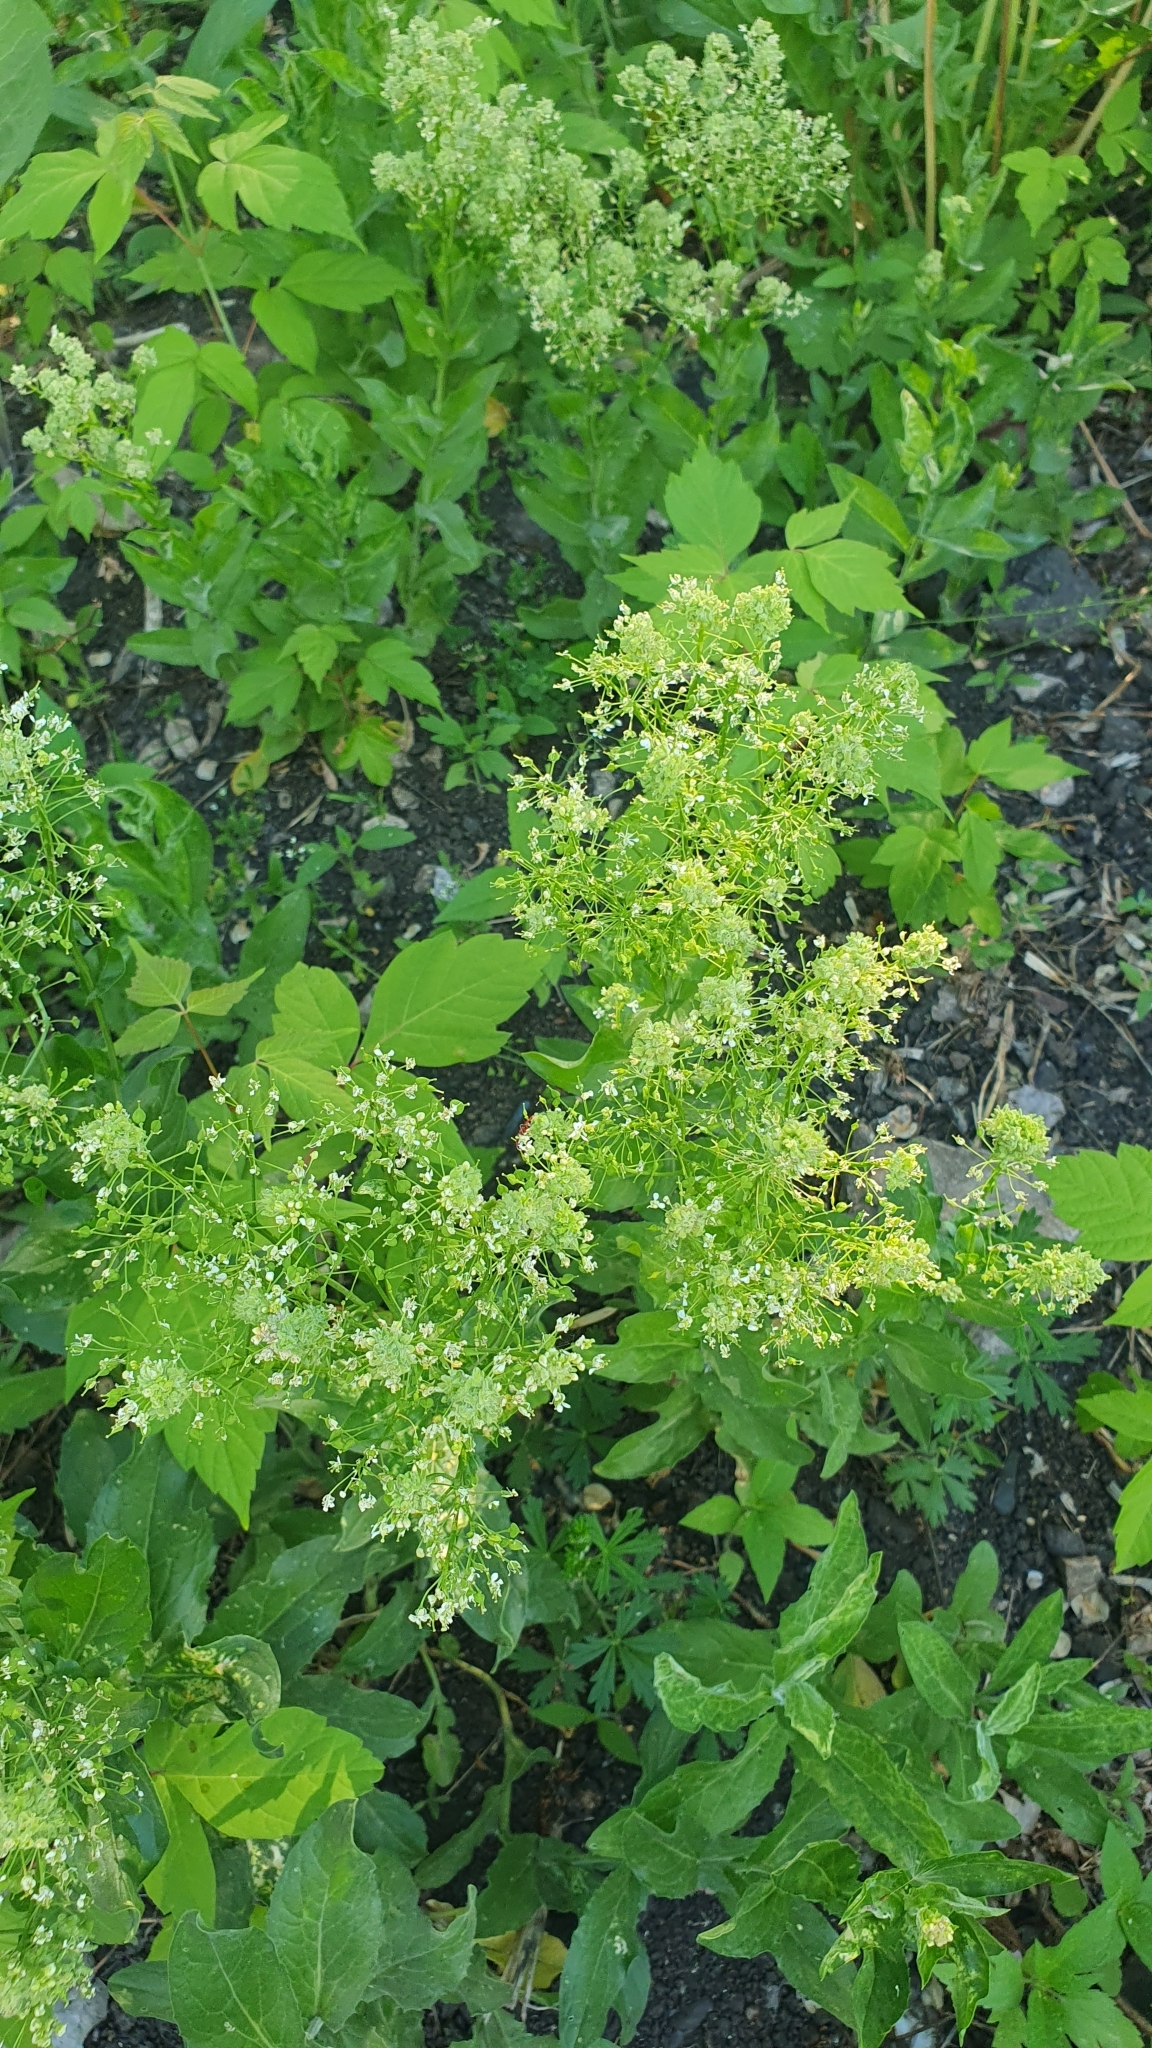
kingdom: Plantae
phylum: Tracheophyta
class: Magnoliopsida
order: Brassicales
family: Brassicaceae
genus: Lepidium
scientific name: Lepidium draba
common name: Hoary cress
